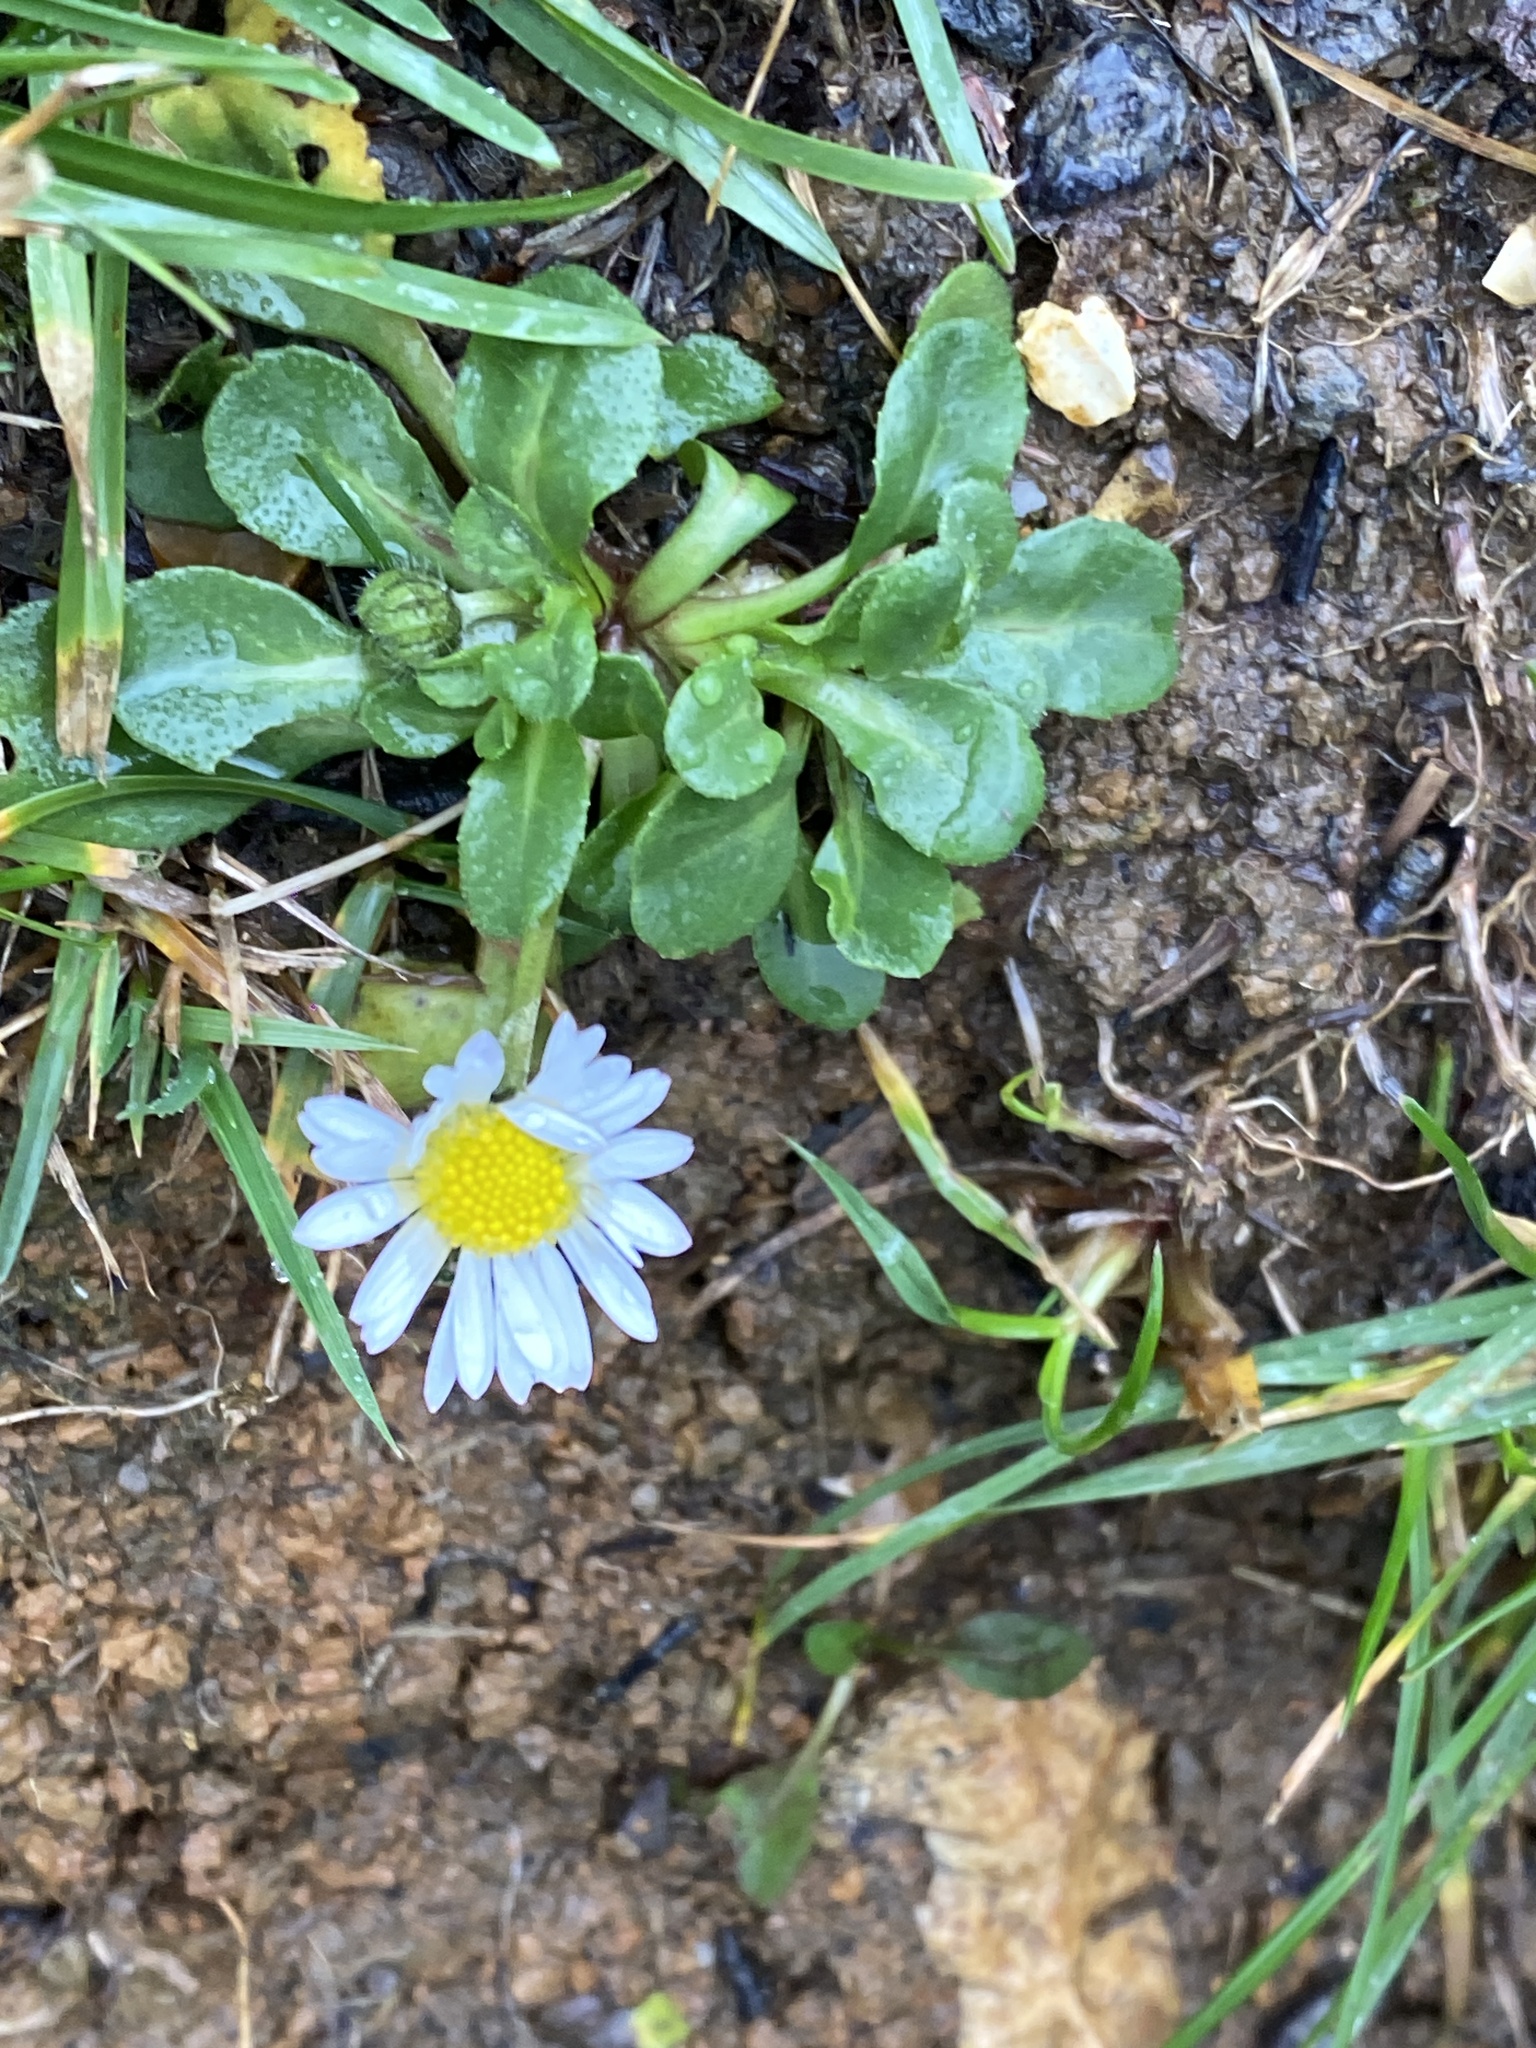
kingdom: Plantae
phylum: Tracheophyta
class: Magnoliopsida
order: Asterales
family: Asteraceae
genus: Bellis
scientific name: Bellis perennis
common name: Lawndaisy
